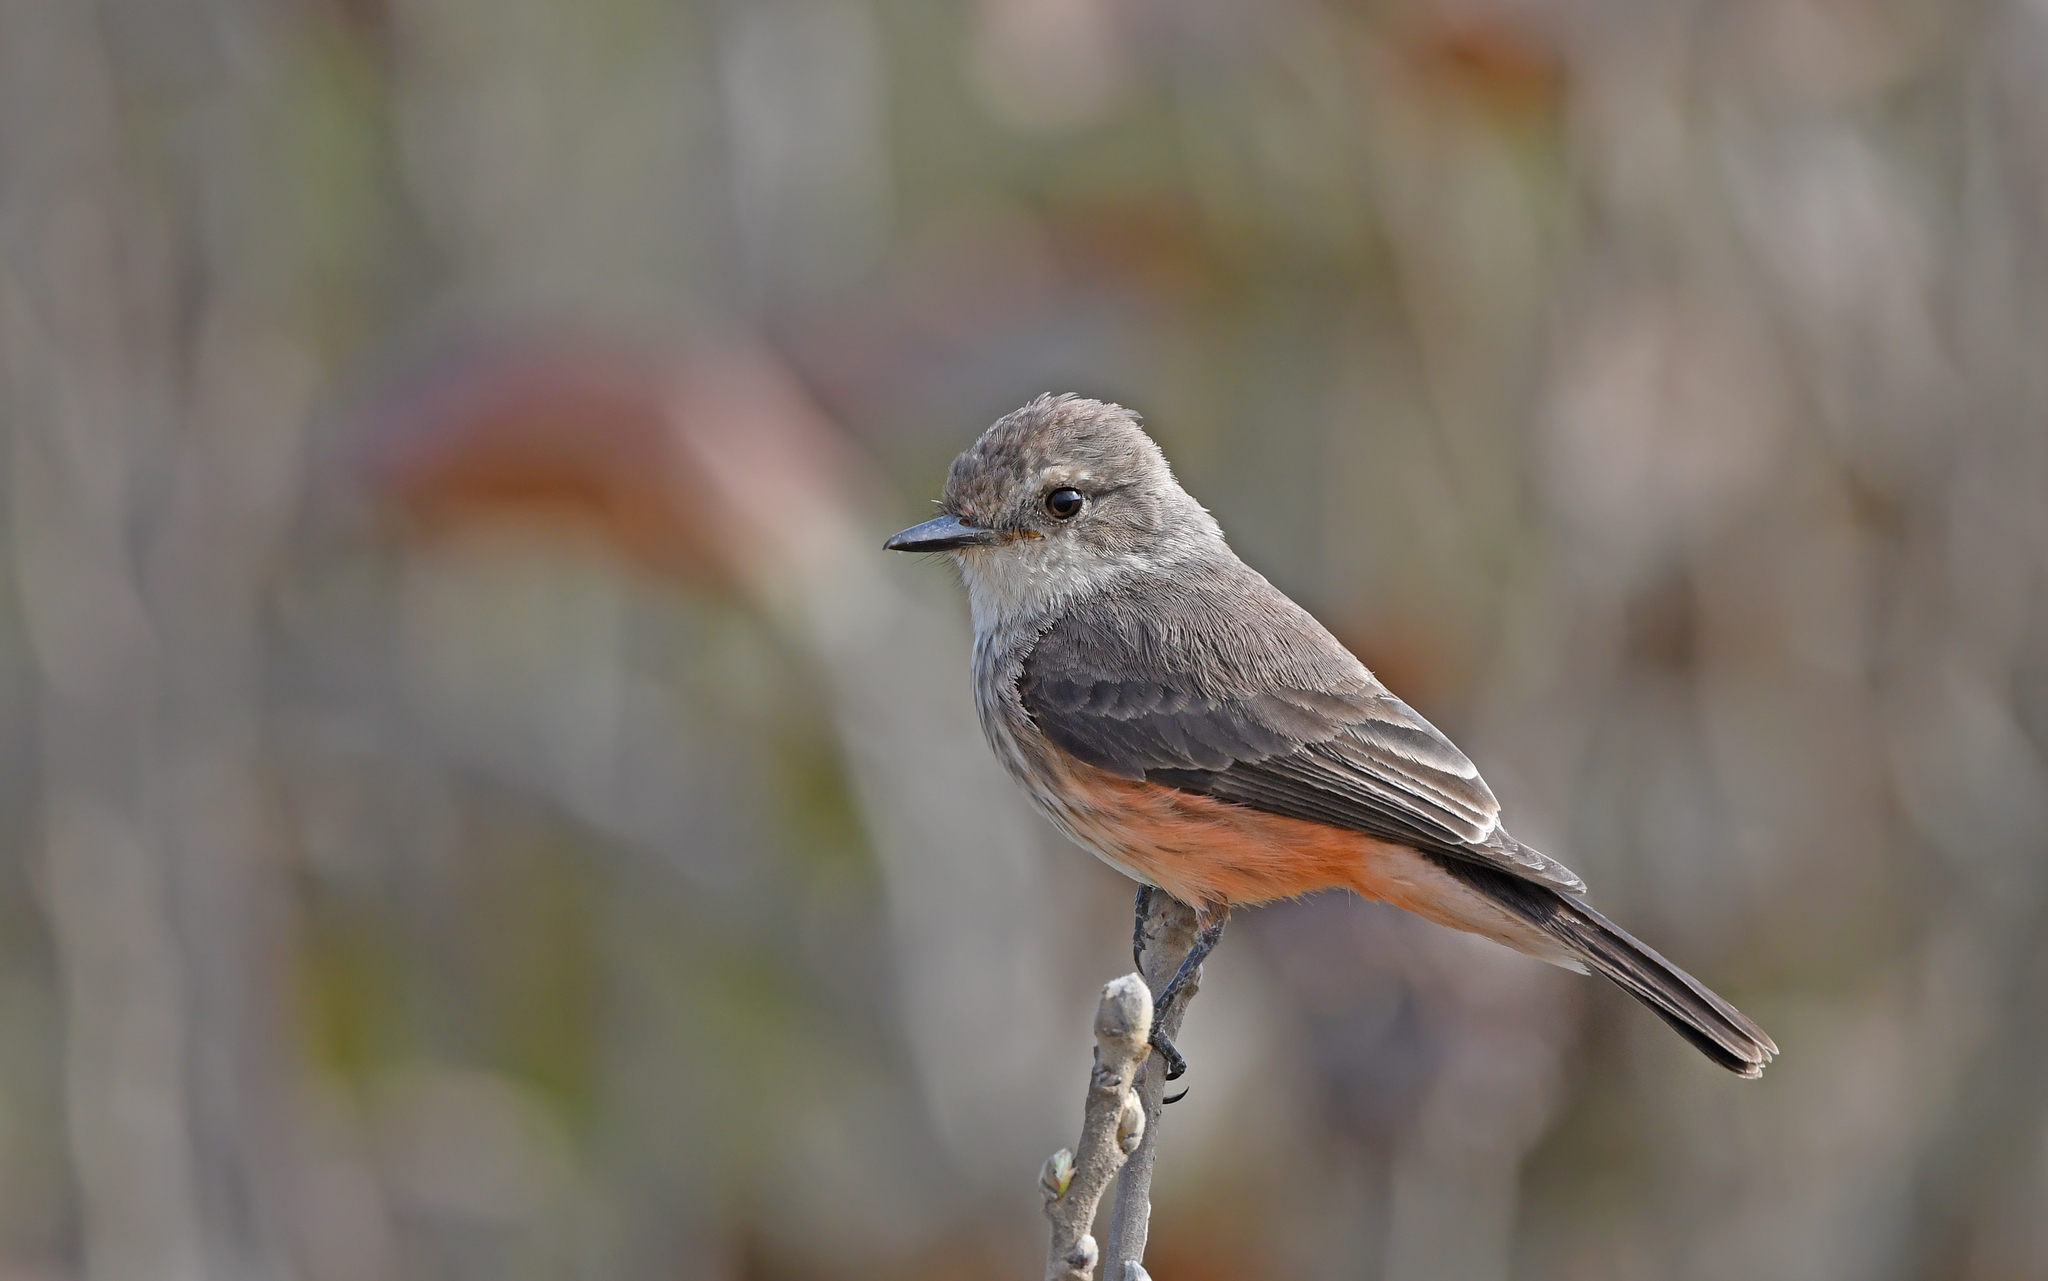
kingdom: Animalia
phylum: Chordata
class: Aves
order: Passeriformes
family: Tyrannidae
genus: Pyrocephalus
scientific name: Pyrocephalus rubinus
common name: Vermilion flycatcher
